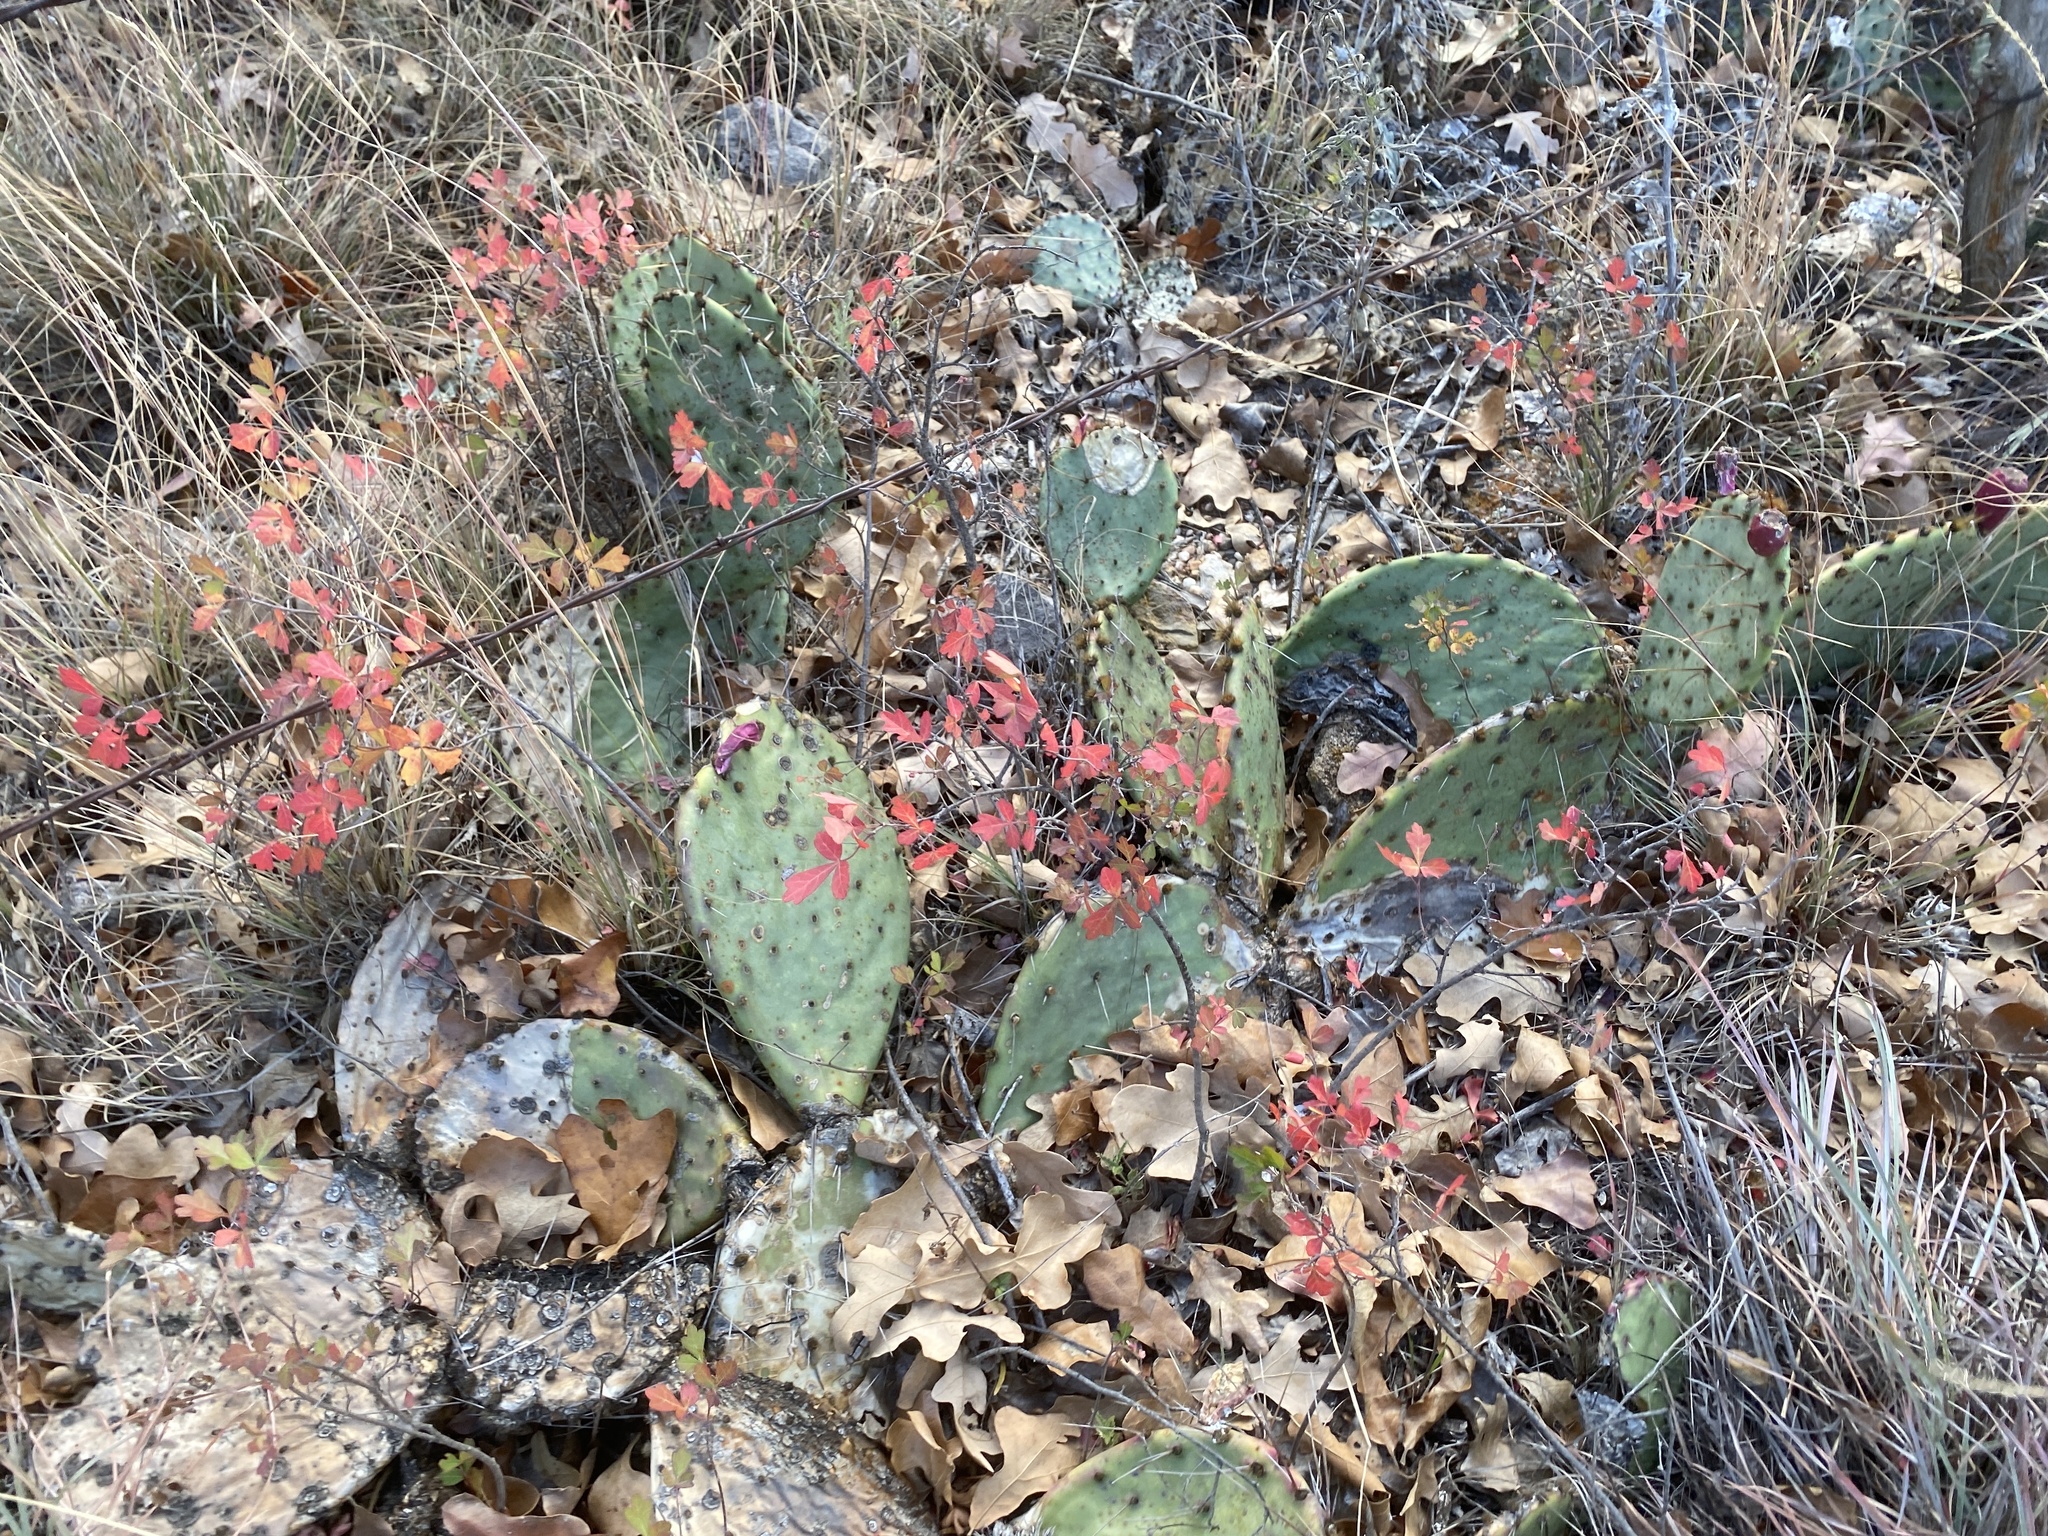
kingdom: Plantae
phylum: Tracheophyta
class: Magnoliopsida
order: Sapindales
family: Anacardiaceae
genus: Rhus
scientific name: Rhus aromatica
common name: Aromatic sumac
